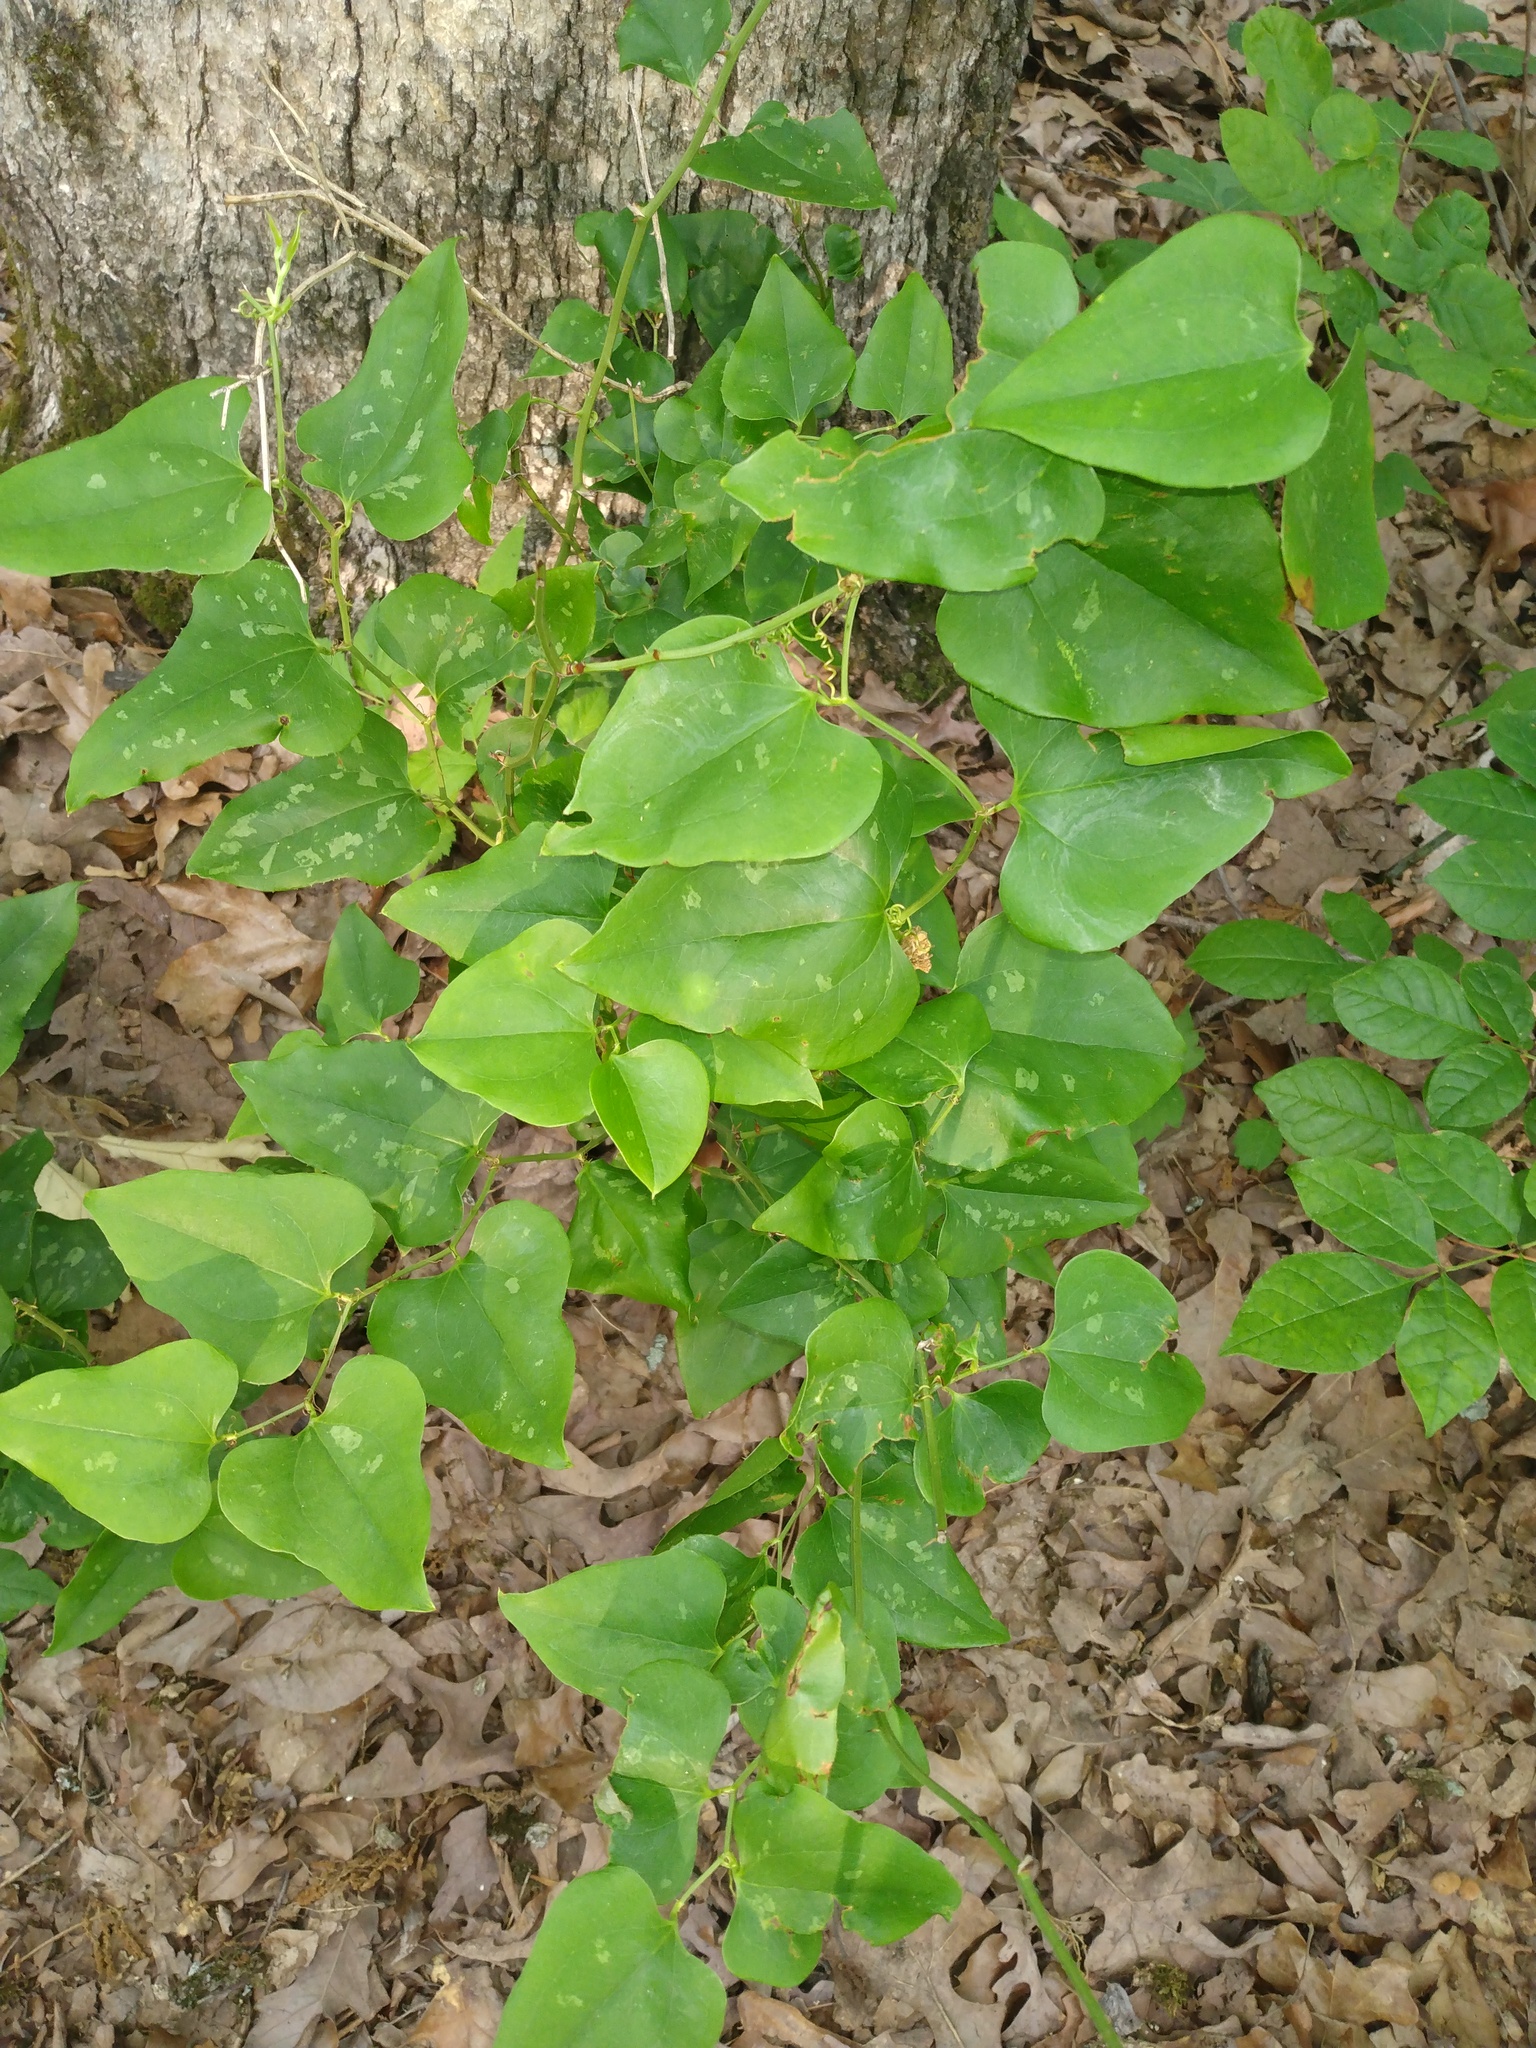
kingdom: Plantae
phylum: Tracheophyta
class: Liliopsida
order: Liliales
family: Smilacaceae
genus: Smilax
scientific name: Smilax bona-nox
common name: Catbrier
